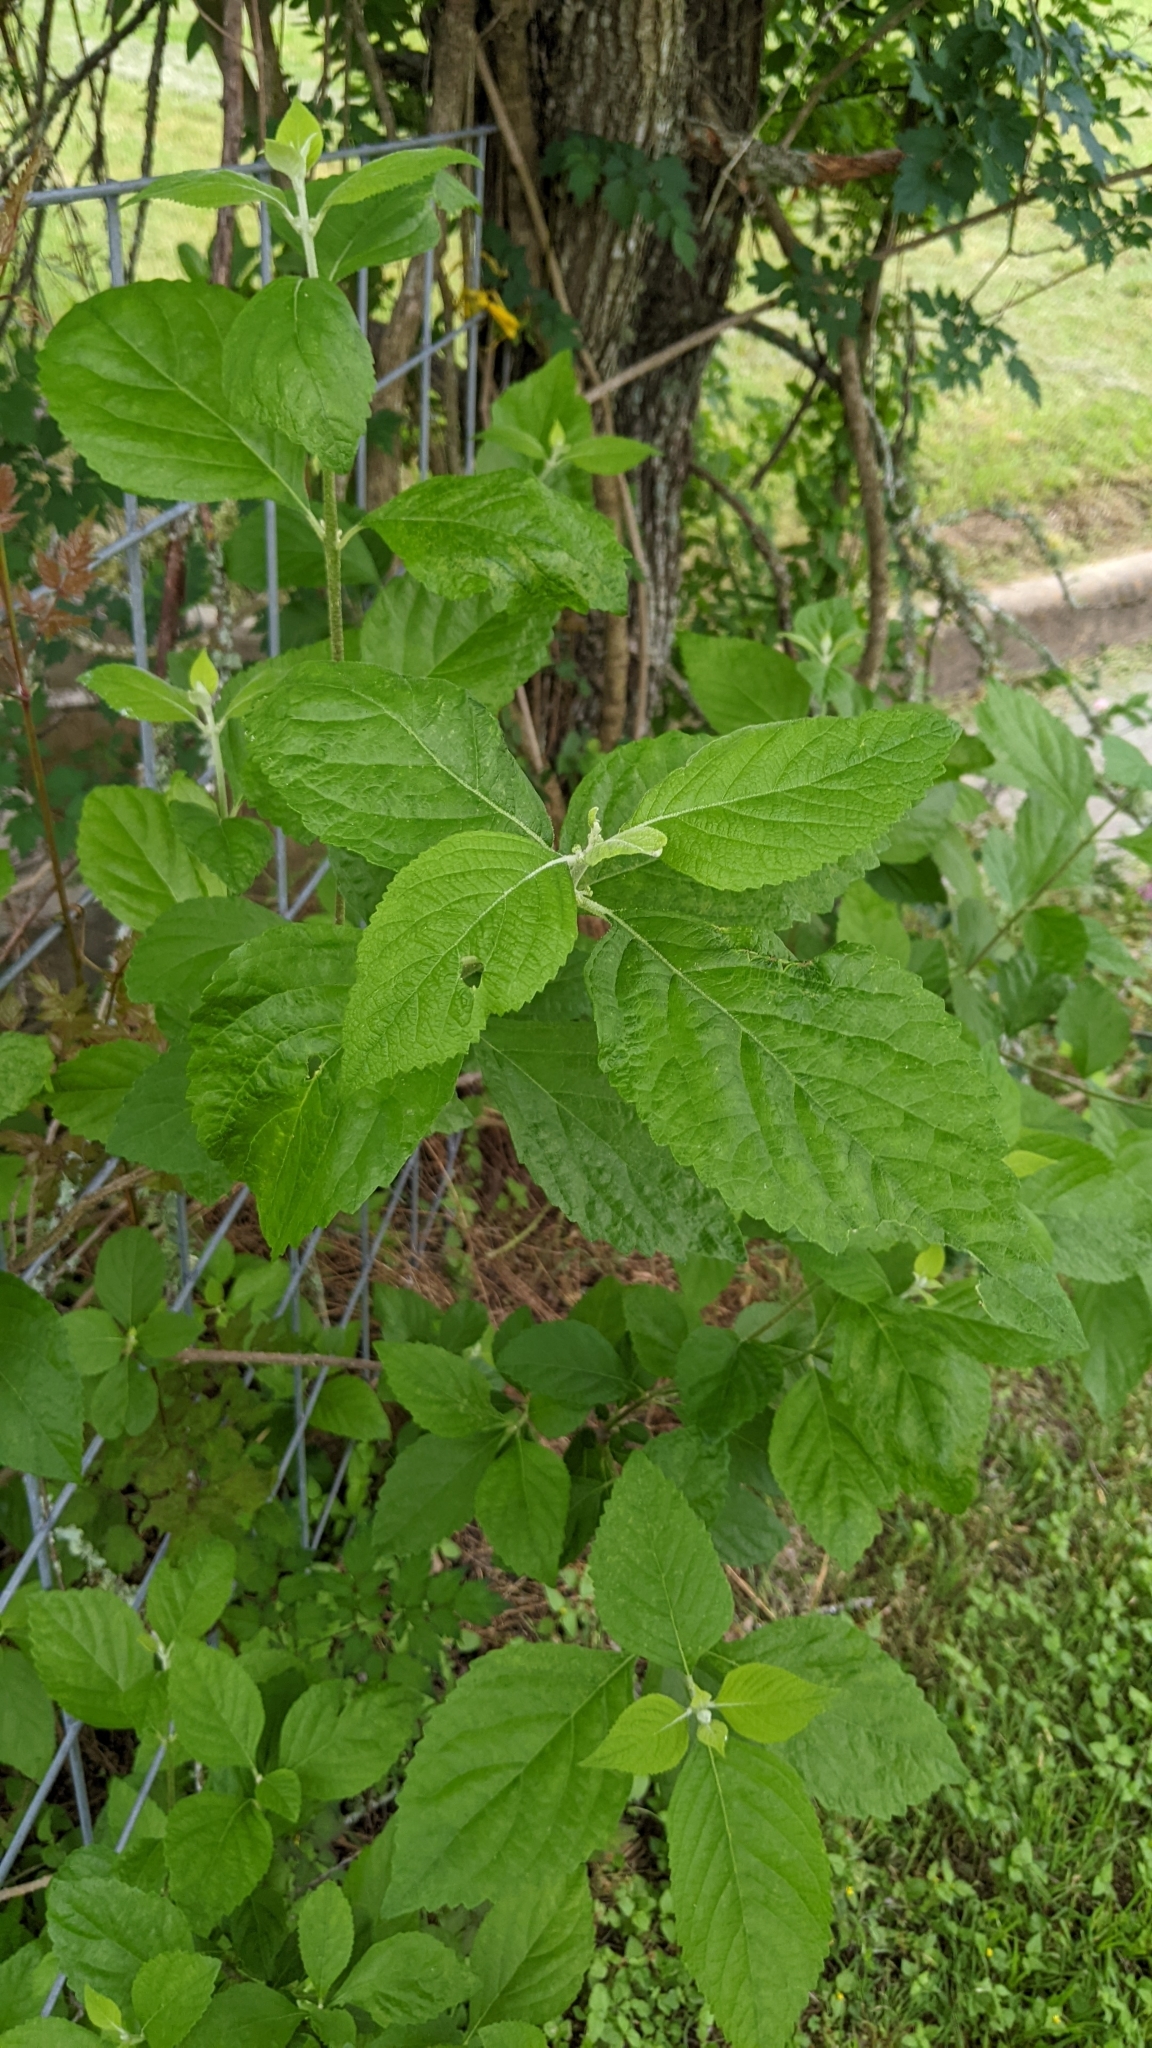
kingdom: Plantae
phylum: Tracheophyta
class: Magnoliopsida
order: Lamiales
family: Lamiaceae
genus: Callicarpa
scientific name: Callicarpa americana
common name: American beautyberry
